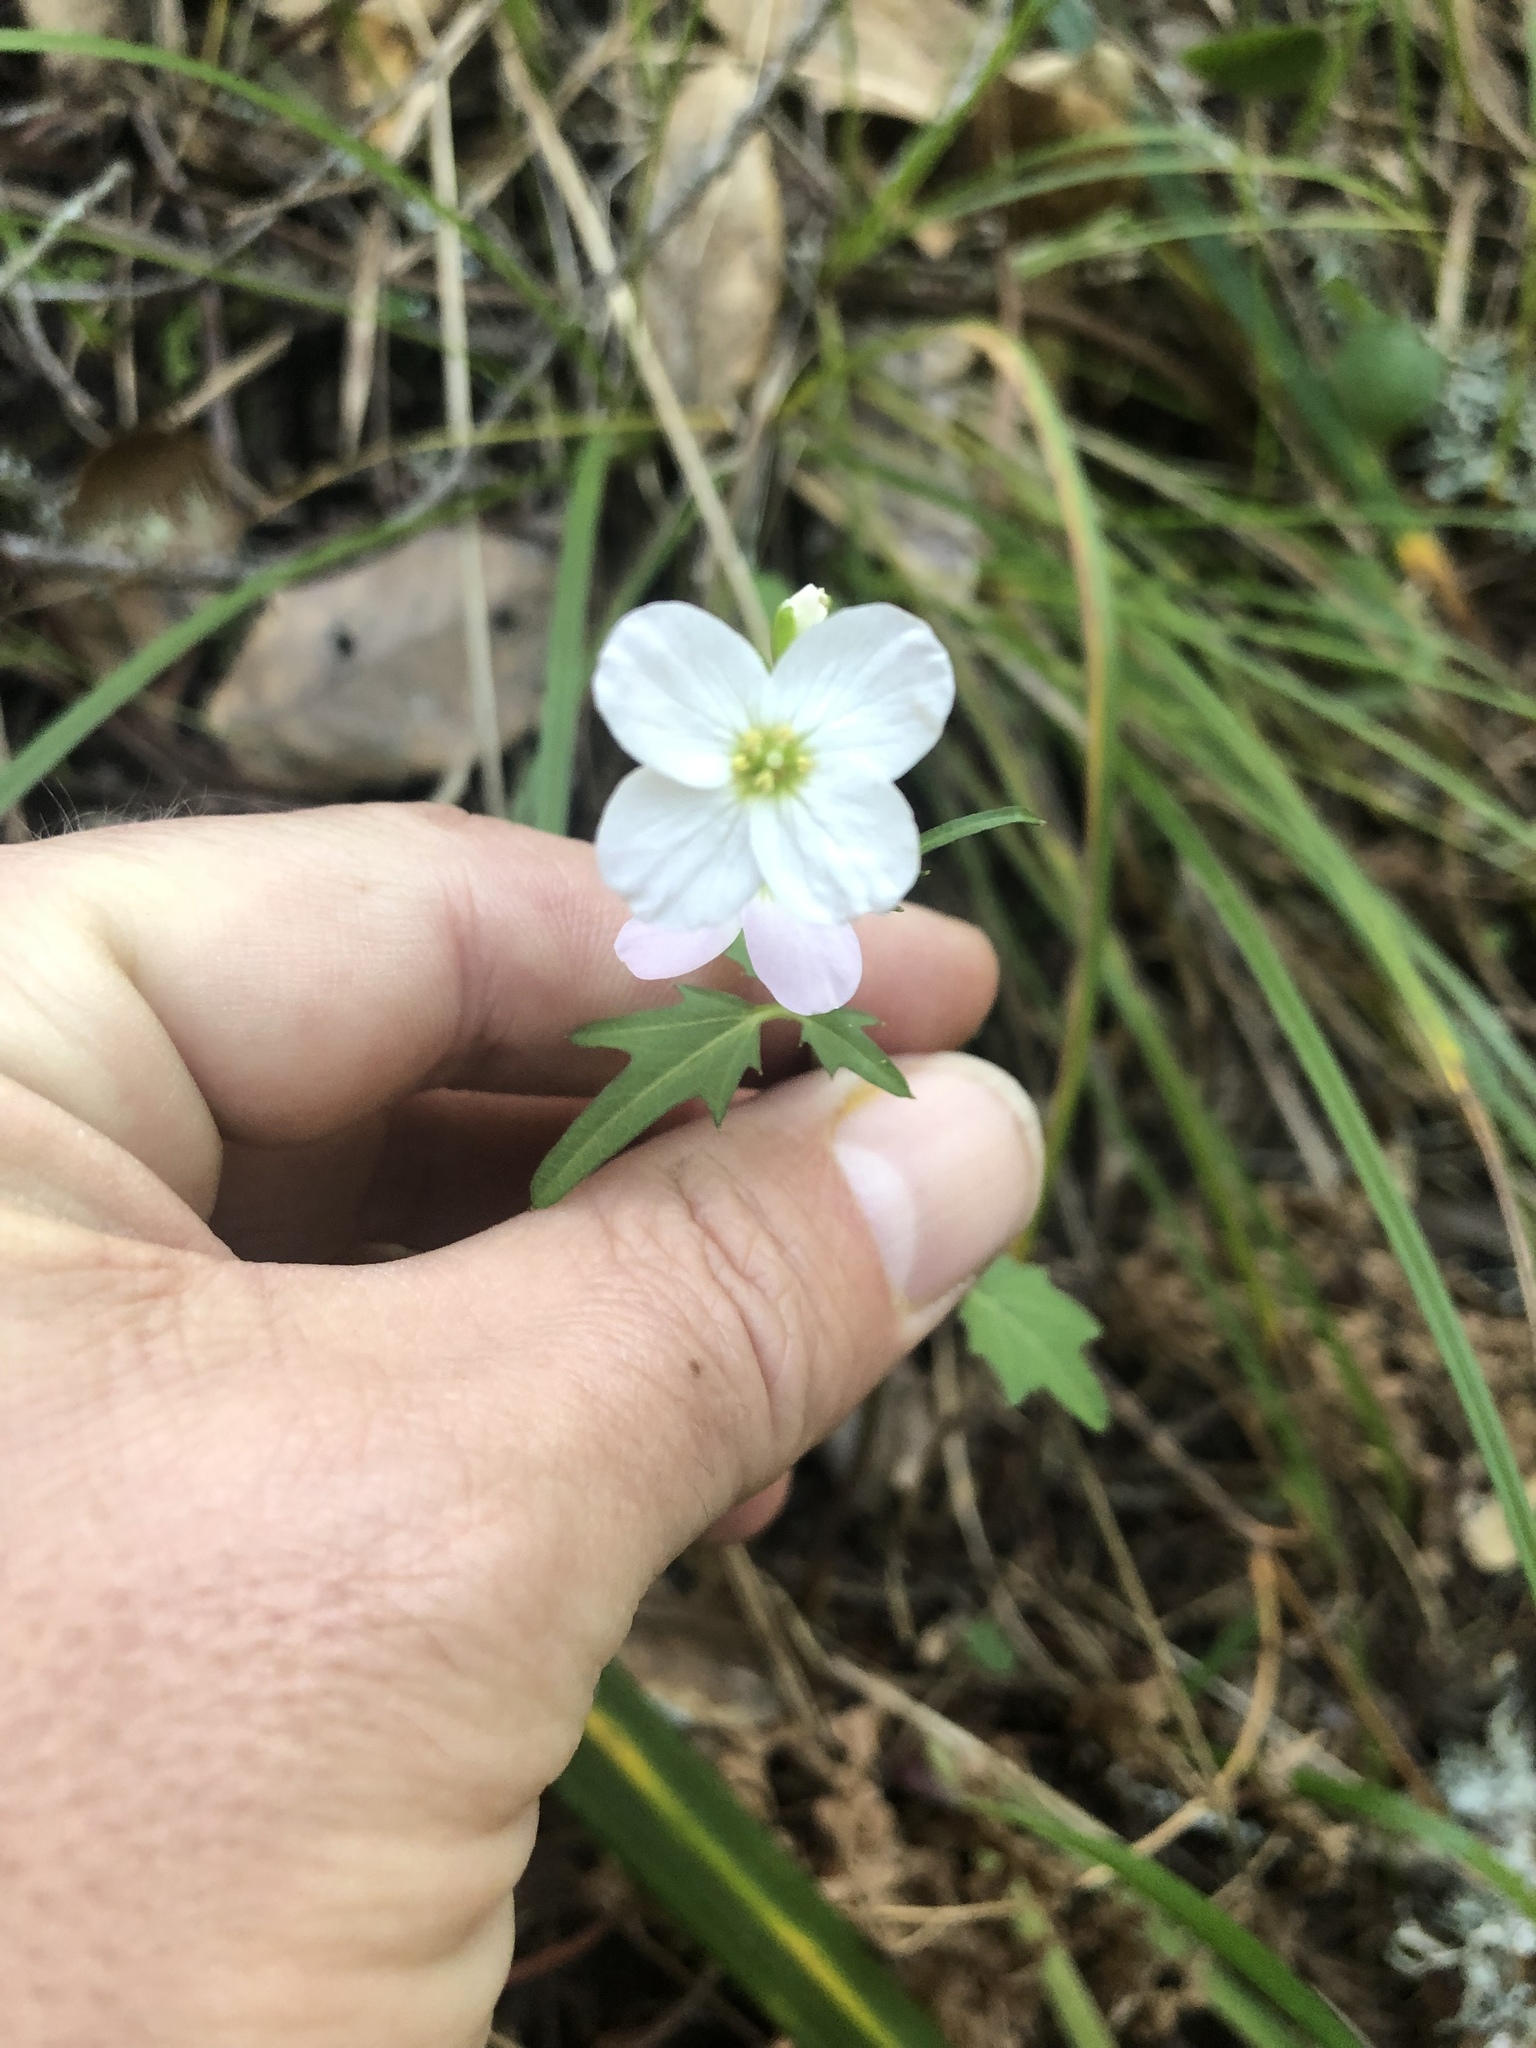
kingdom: Plantae
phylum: Tracheophyta
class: Magnoliopsida
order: Brassicales
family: Brassicaceae
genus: Cardamine
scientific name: Cardamine californica
